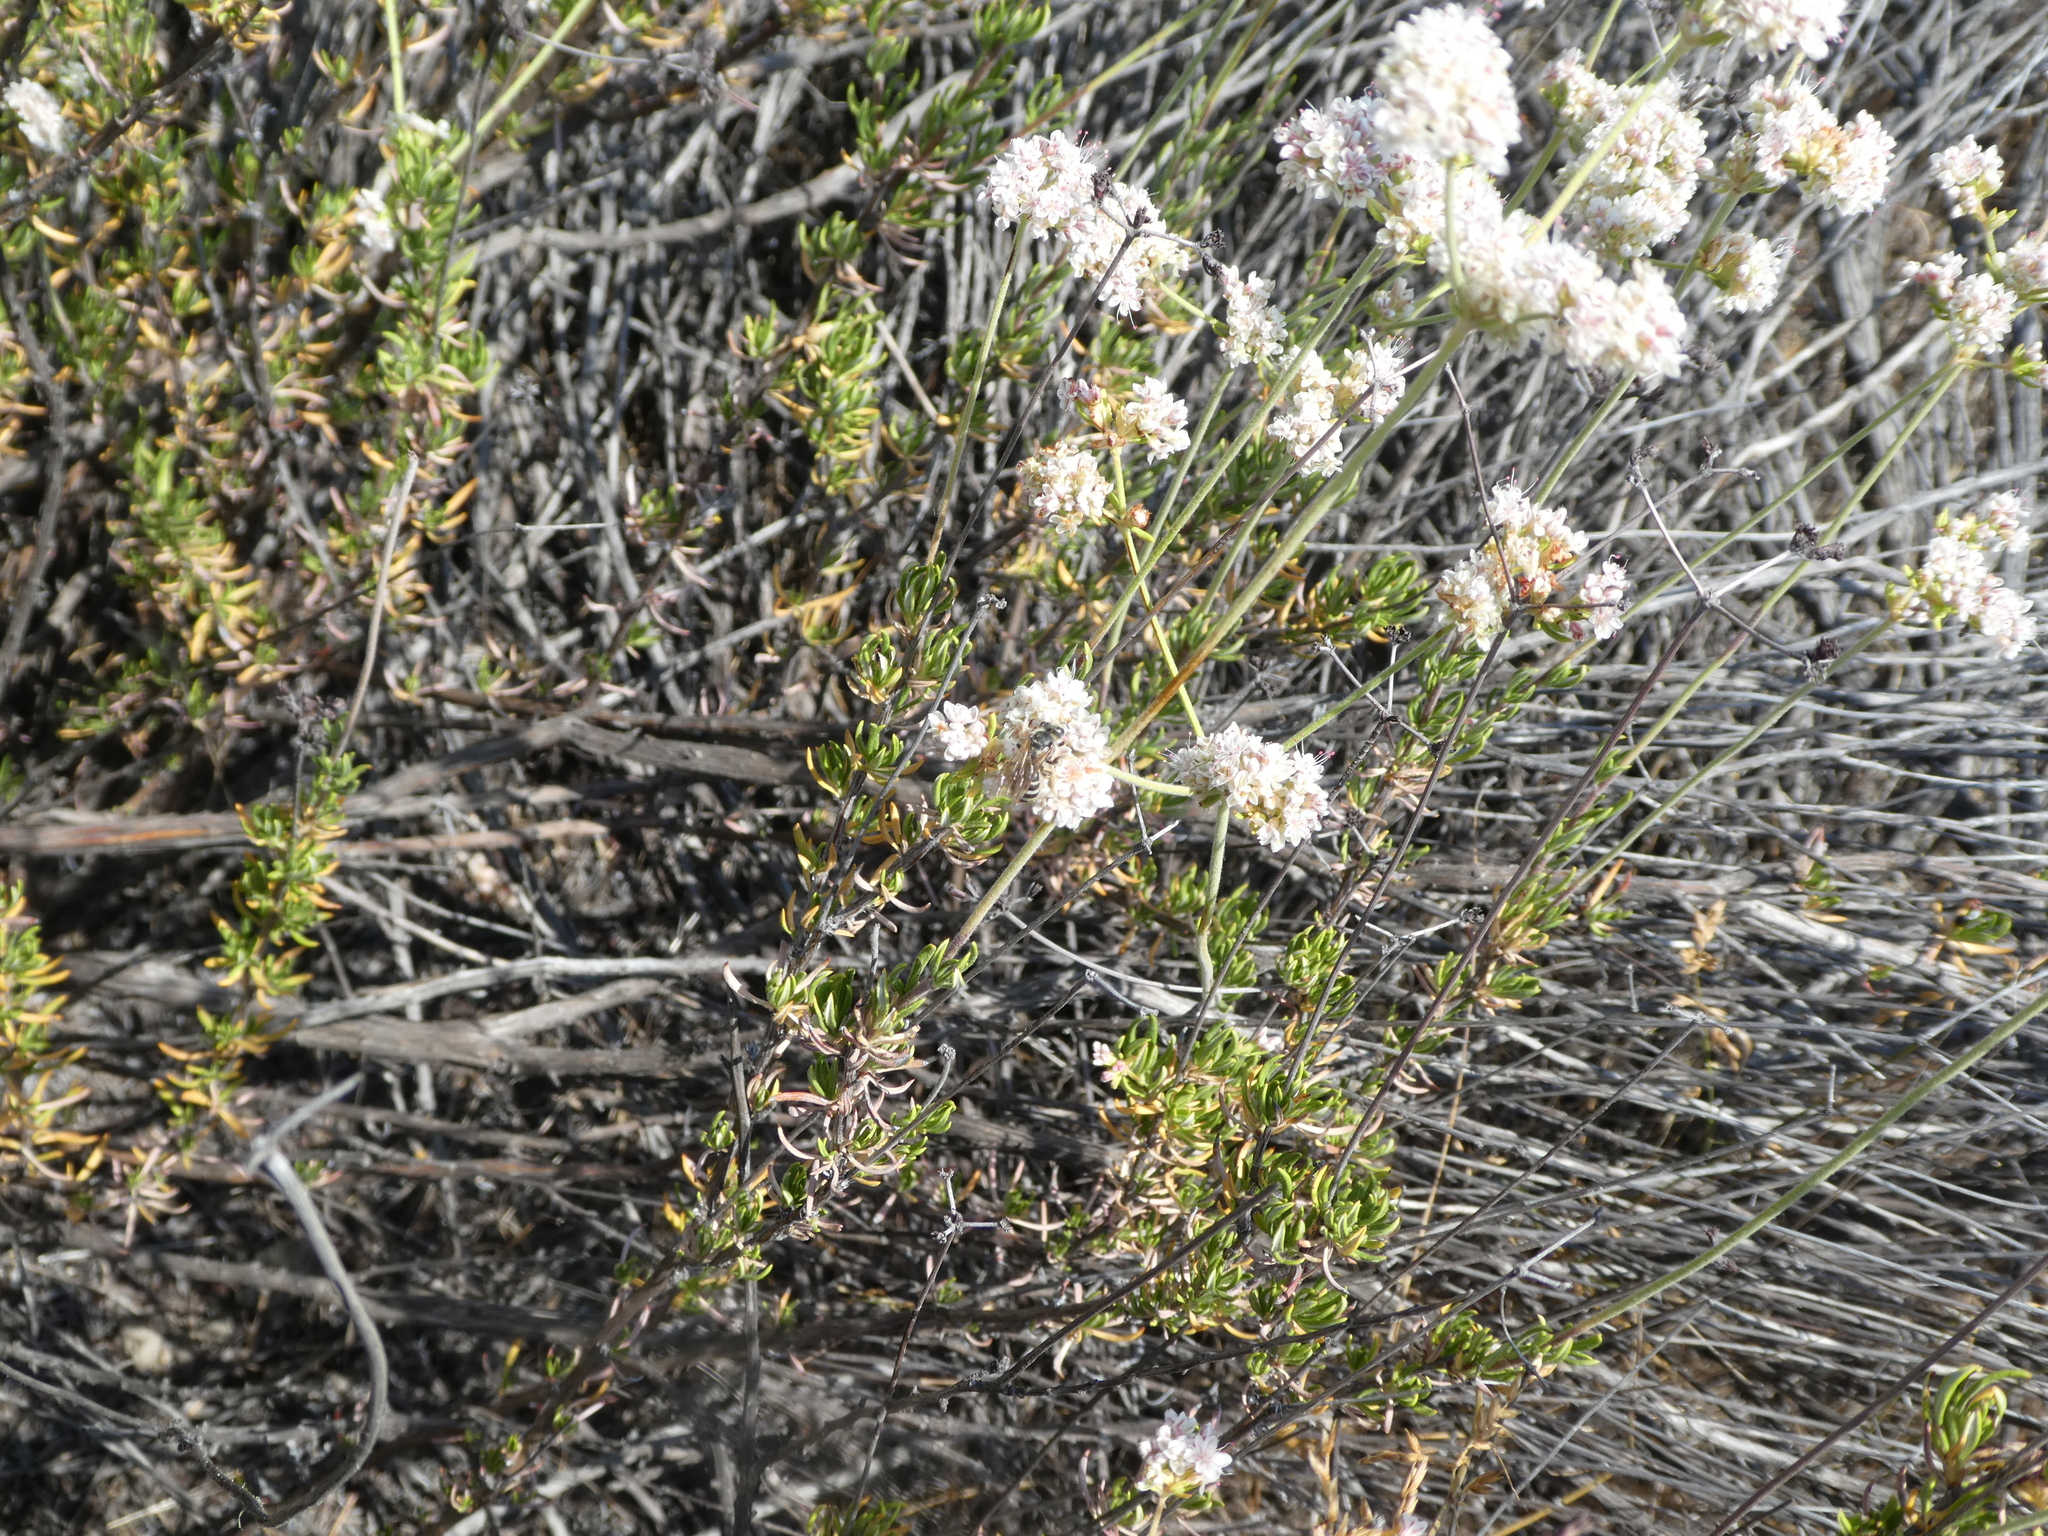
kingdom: Animalia
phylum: Arthropoda
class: Insecta
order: Hymenoptera
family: Halictidae
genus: Halictus
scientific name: Halictus farinosus
